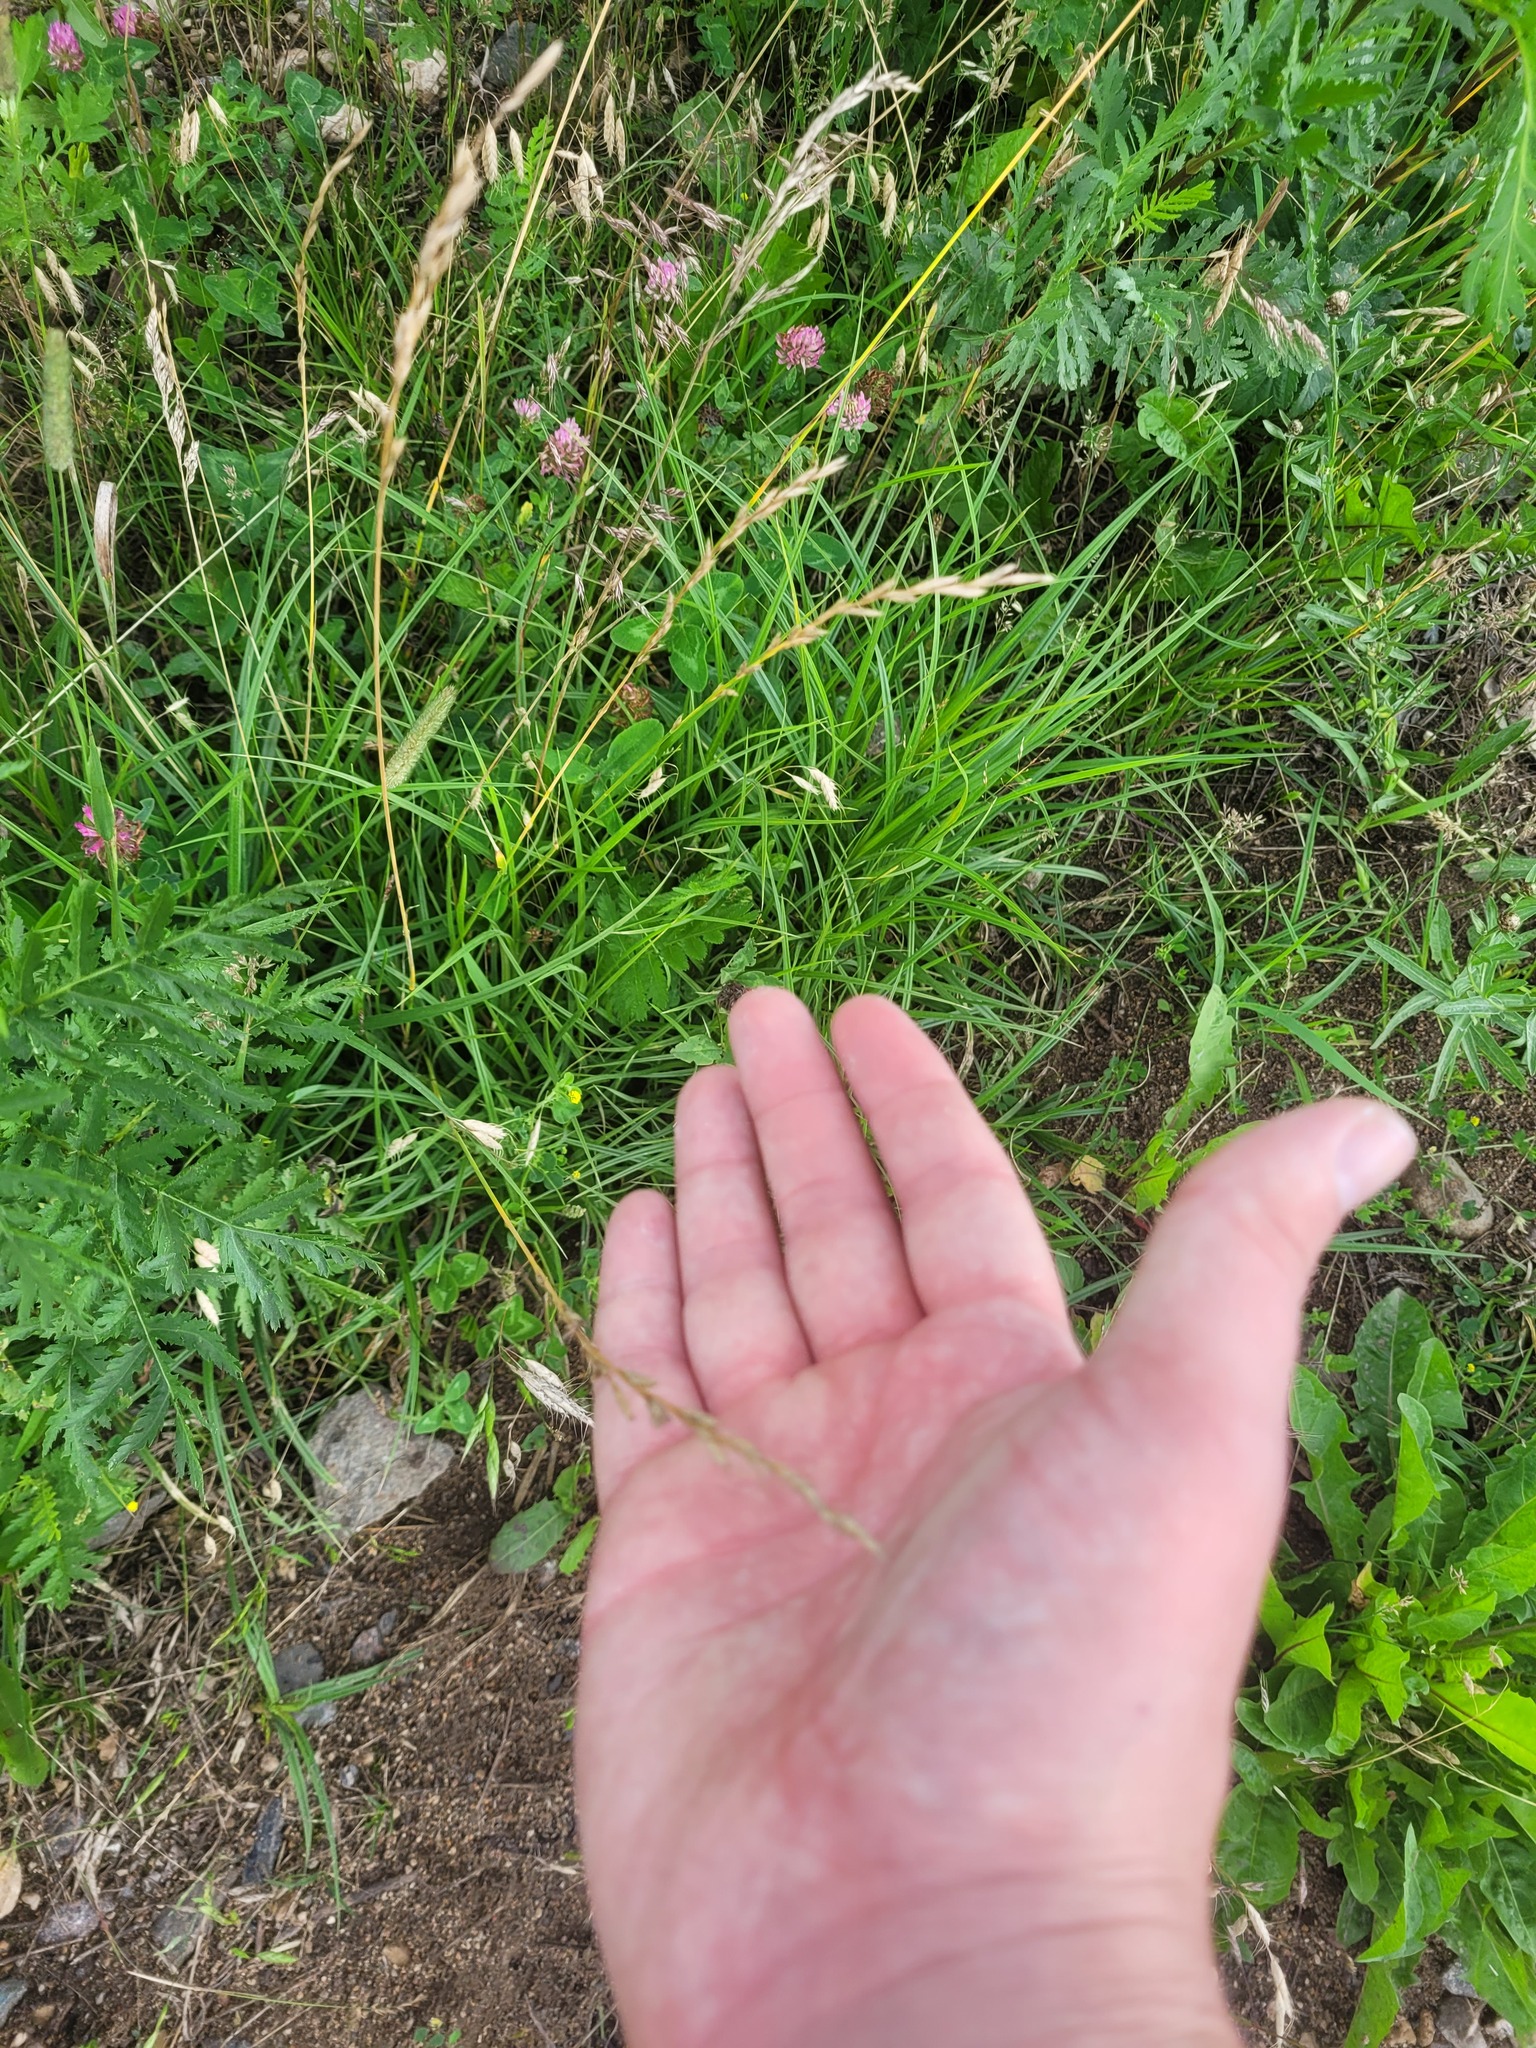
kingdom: Plantae
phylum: Tracheophyta
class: Liliopsida
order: Poales
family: Poaceae
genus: Lolium
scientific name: Lolium pratense
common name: Dover grass
